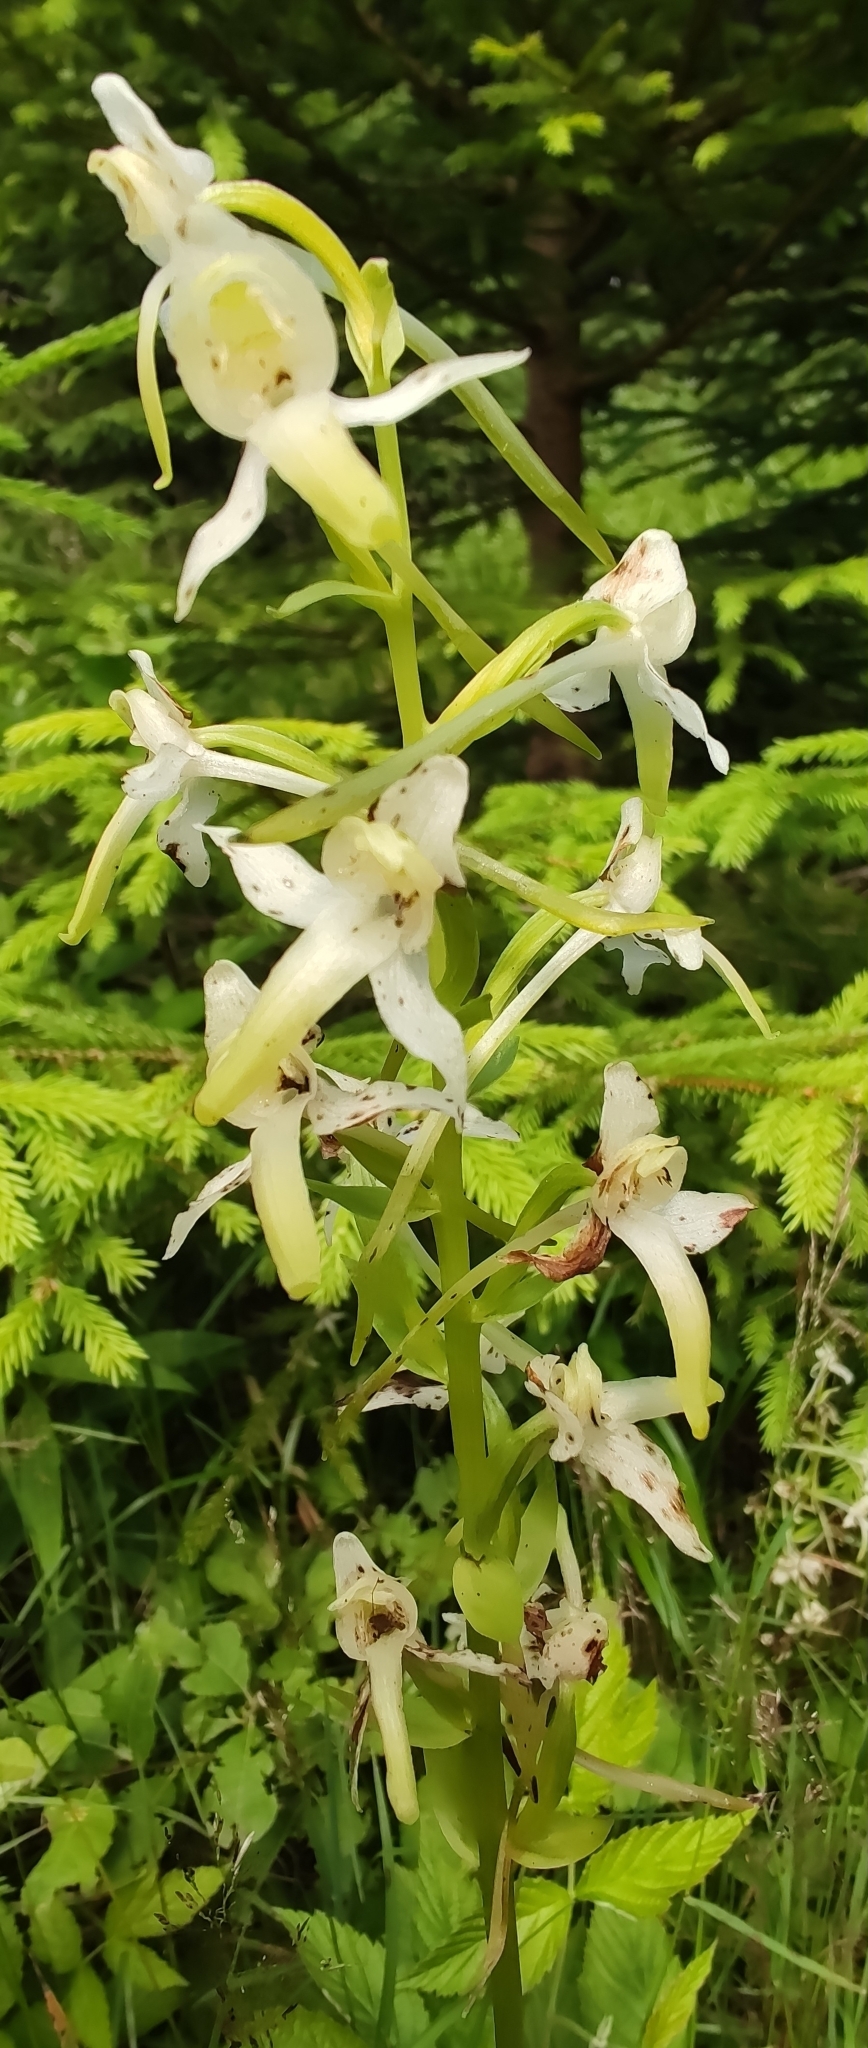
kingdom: Plantae
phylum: Tracheophyta
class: Liliopsida
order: Asparagales
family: Orchidaceae
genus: Platanthera
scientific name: Platanthera chlorantha
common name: Greater butterfly-orchid
